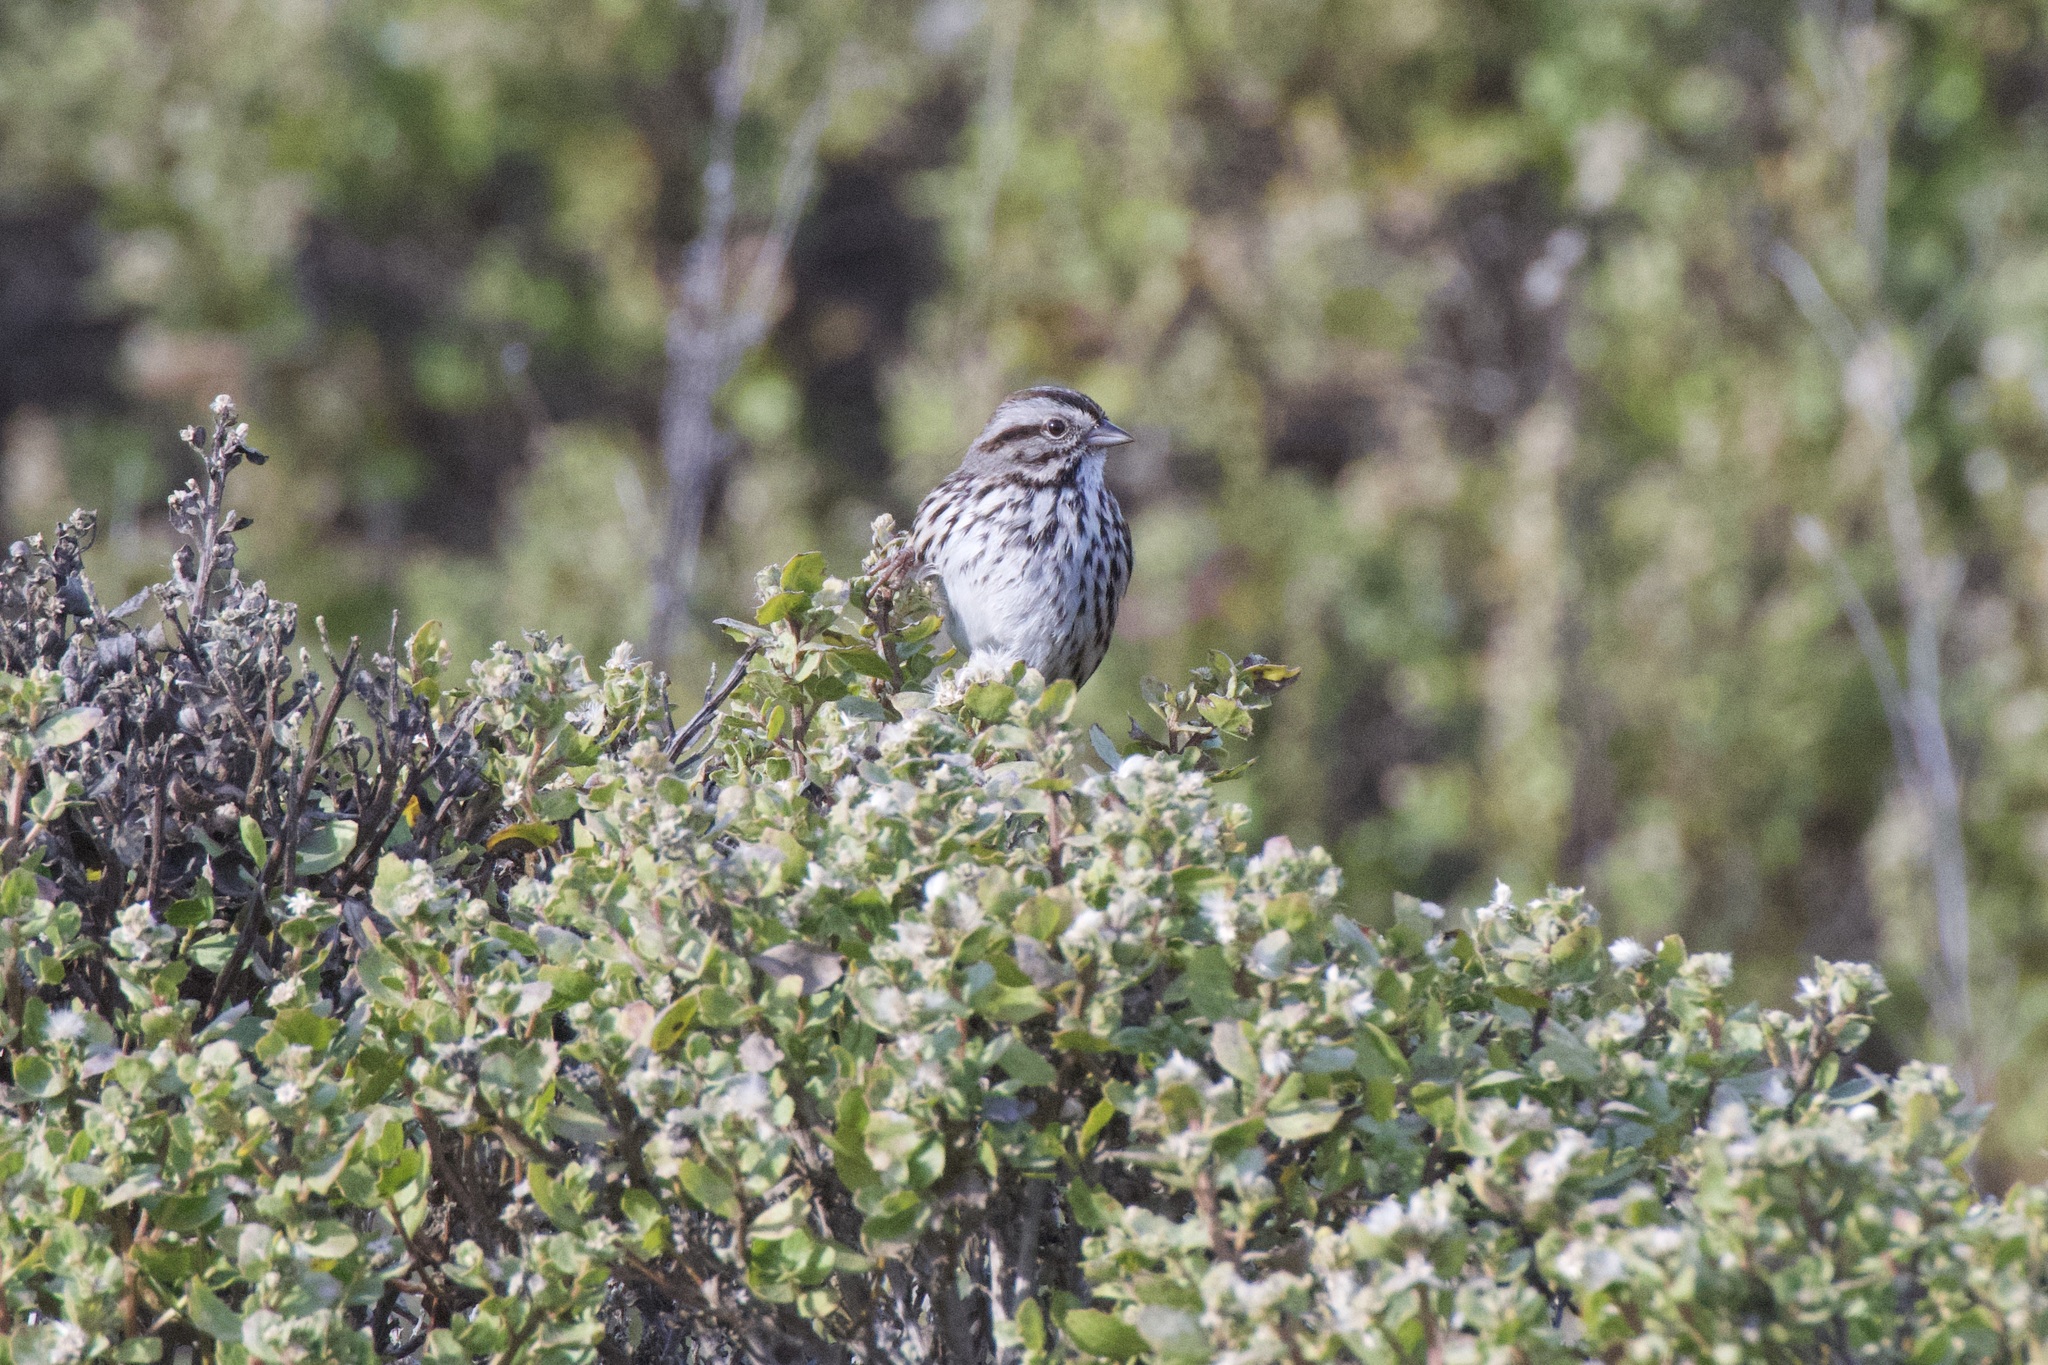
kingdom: Animalia
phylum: Chordata
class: Aves
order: Passeriformes
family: Passerellidae
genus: Melospiza
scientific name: Melospiza melodia
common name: Song sparrow
